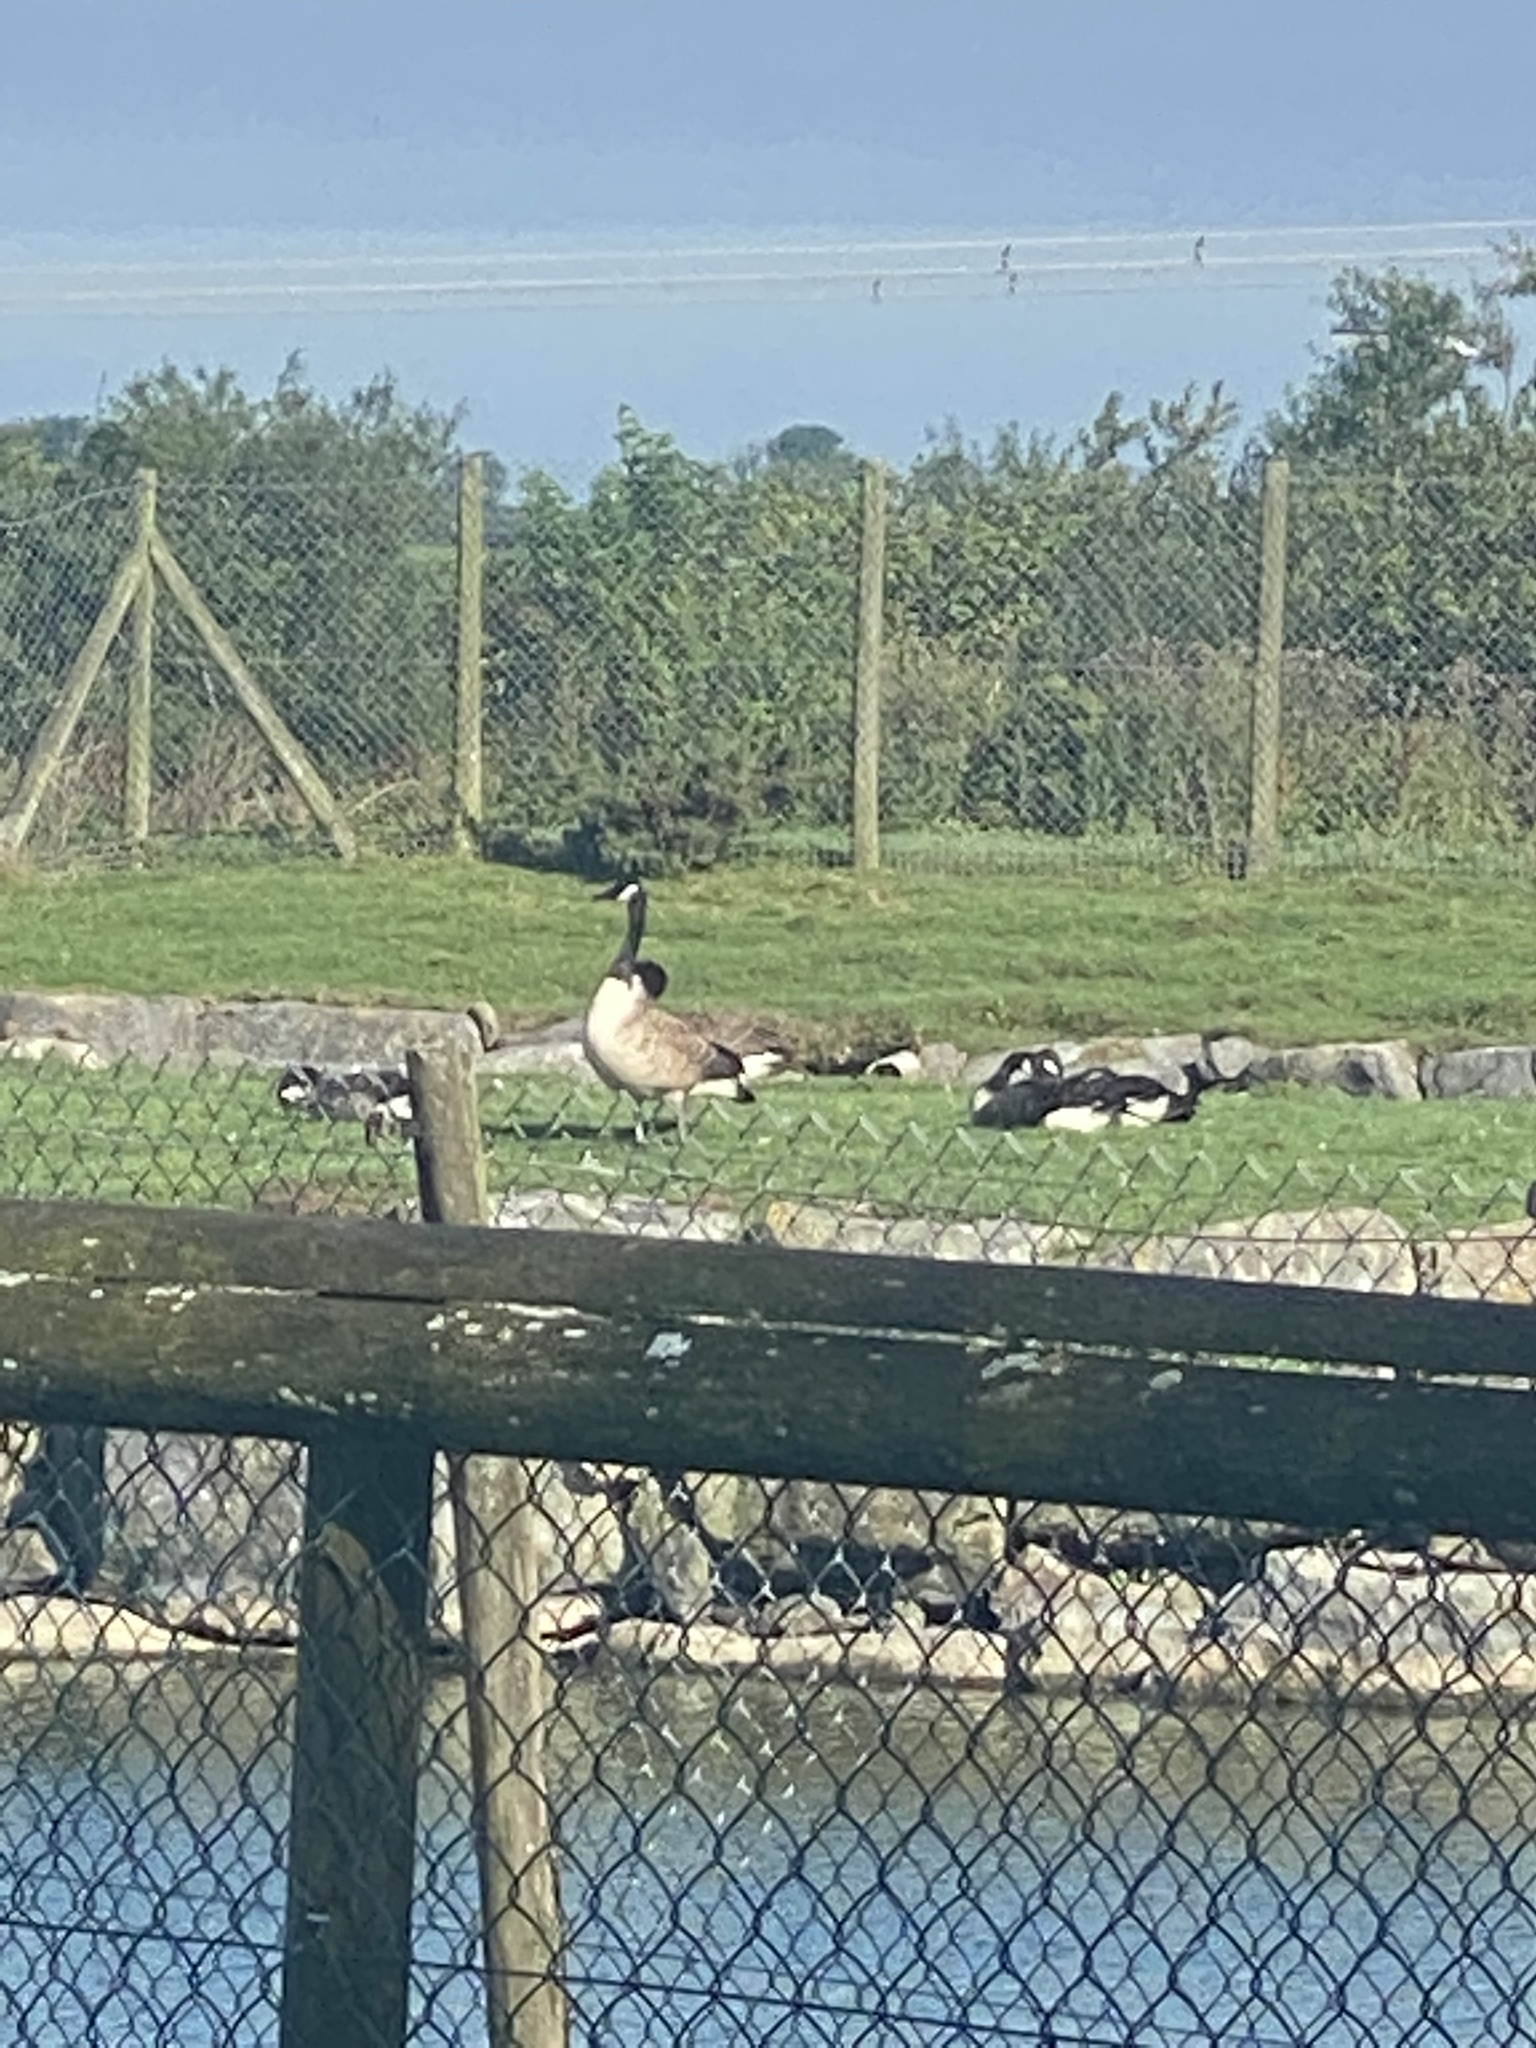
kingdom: Animalia
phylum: Chordata
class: Aves
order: Anseriformes
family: Anatidae
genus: Branta
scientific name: Branta canadensis
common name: Canada goose
